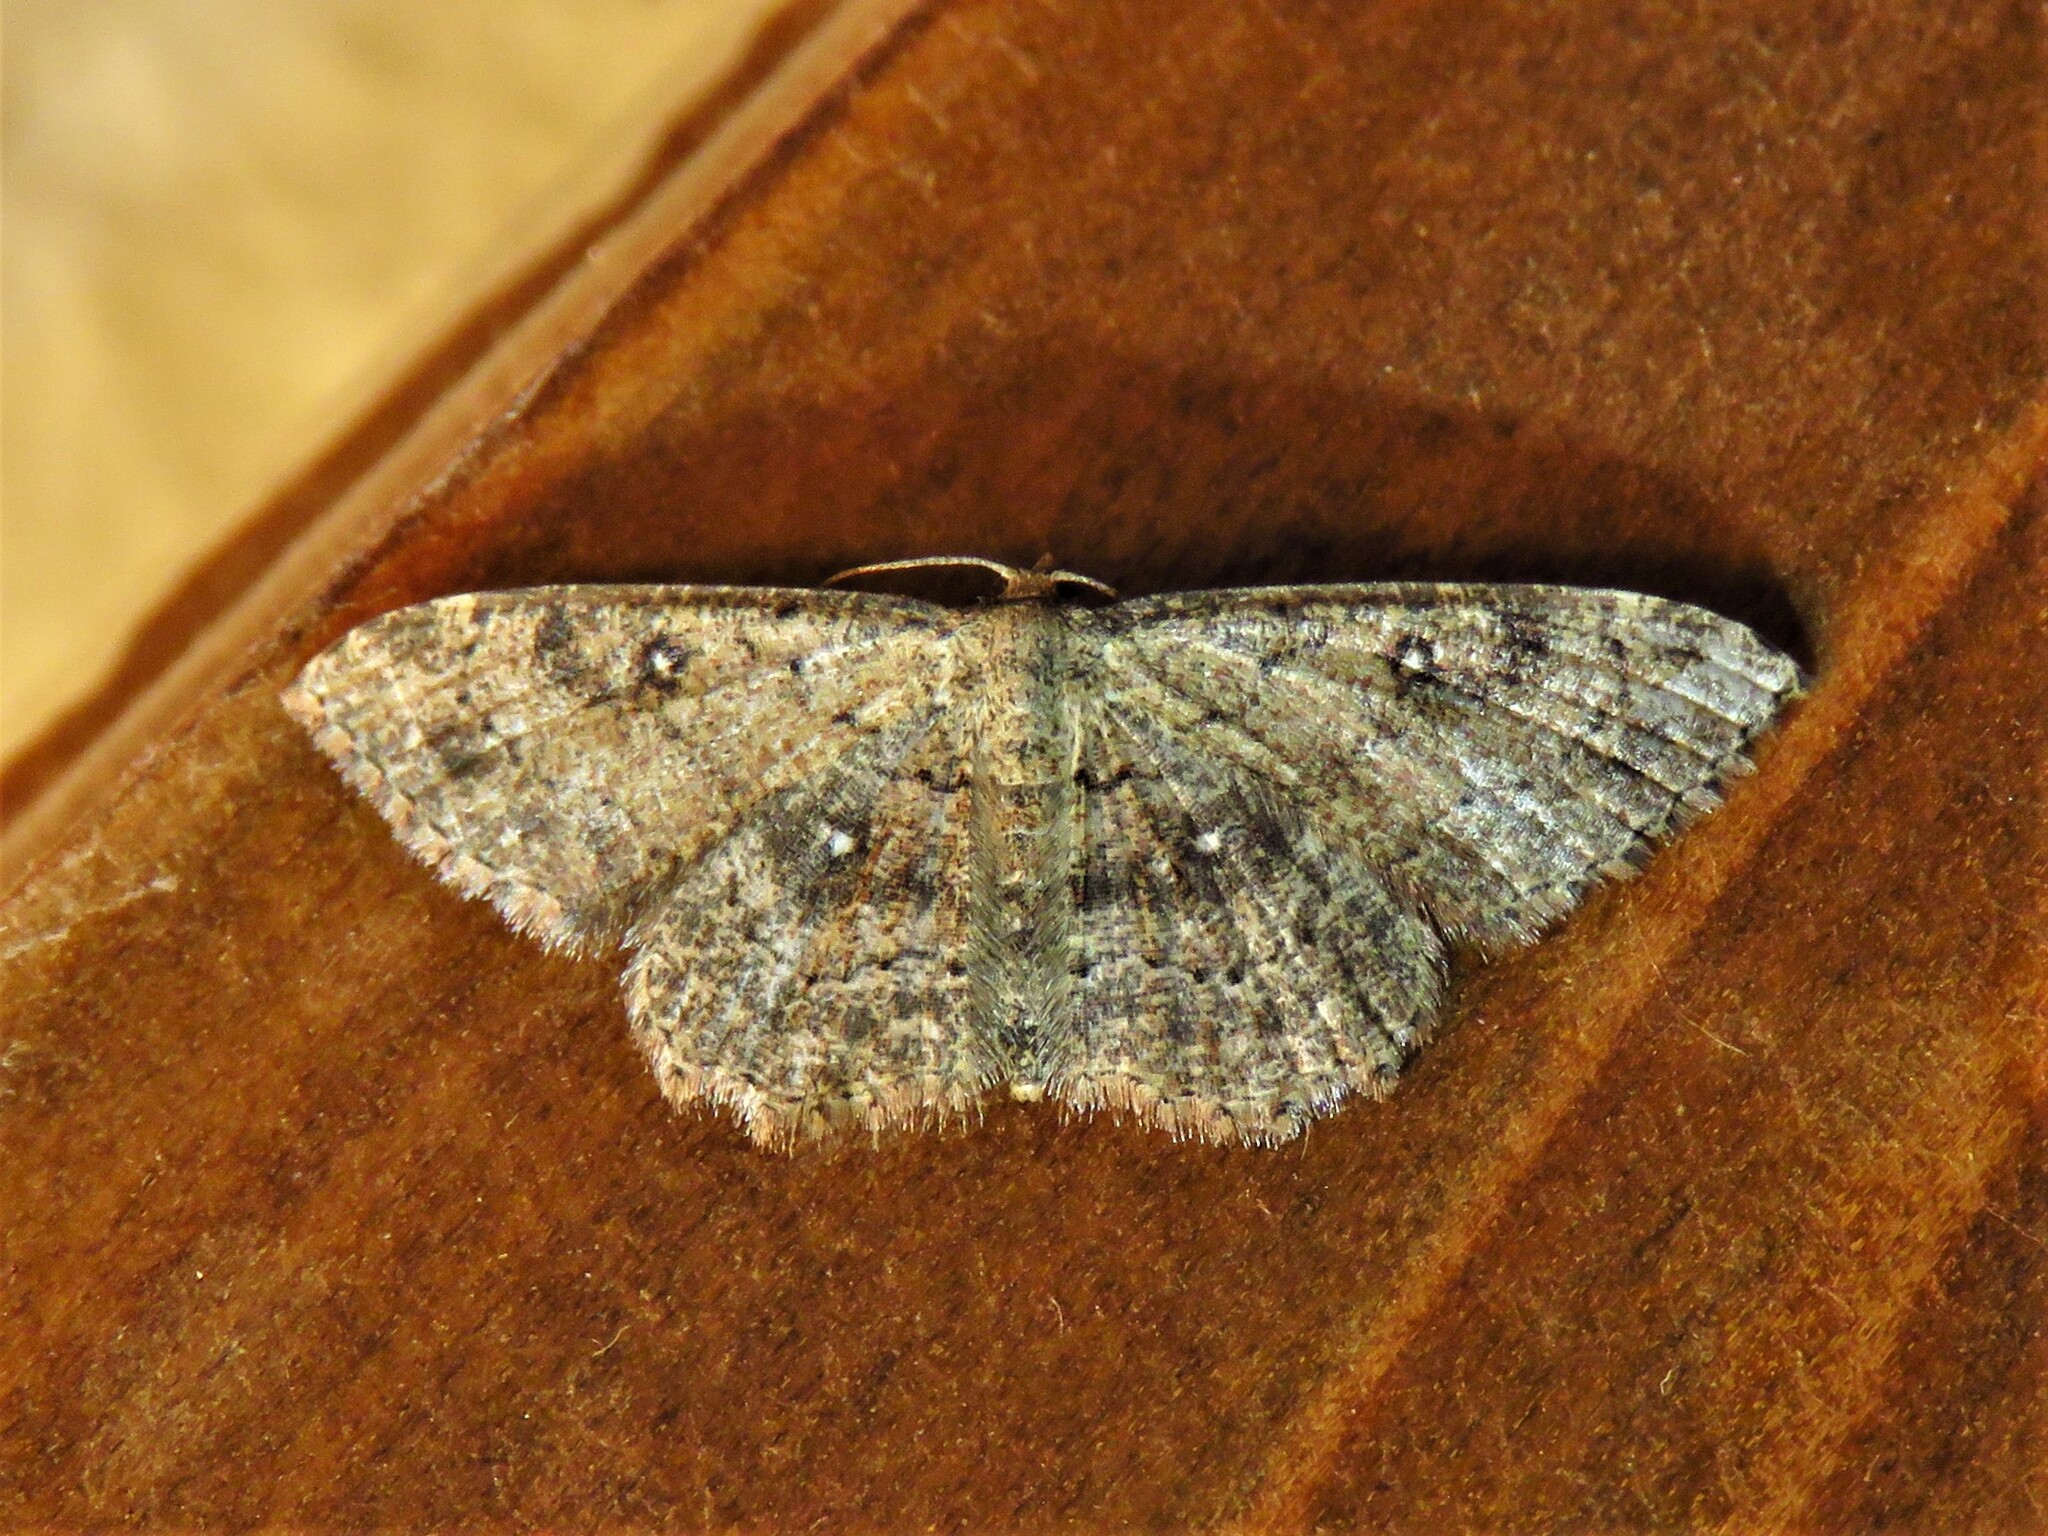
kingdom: Animalia
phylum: Arthropoda
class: Insecta
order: Lepidoptera
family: Geometridae
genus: Cyclophora
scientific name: Cyclophora nanaria
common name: Cankerworm
